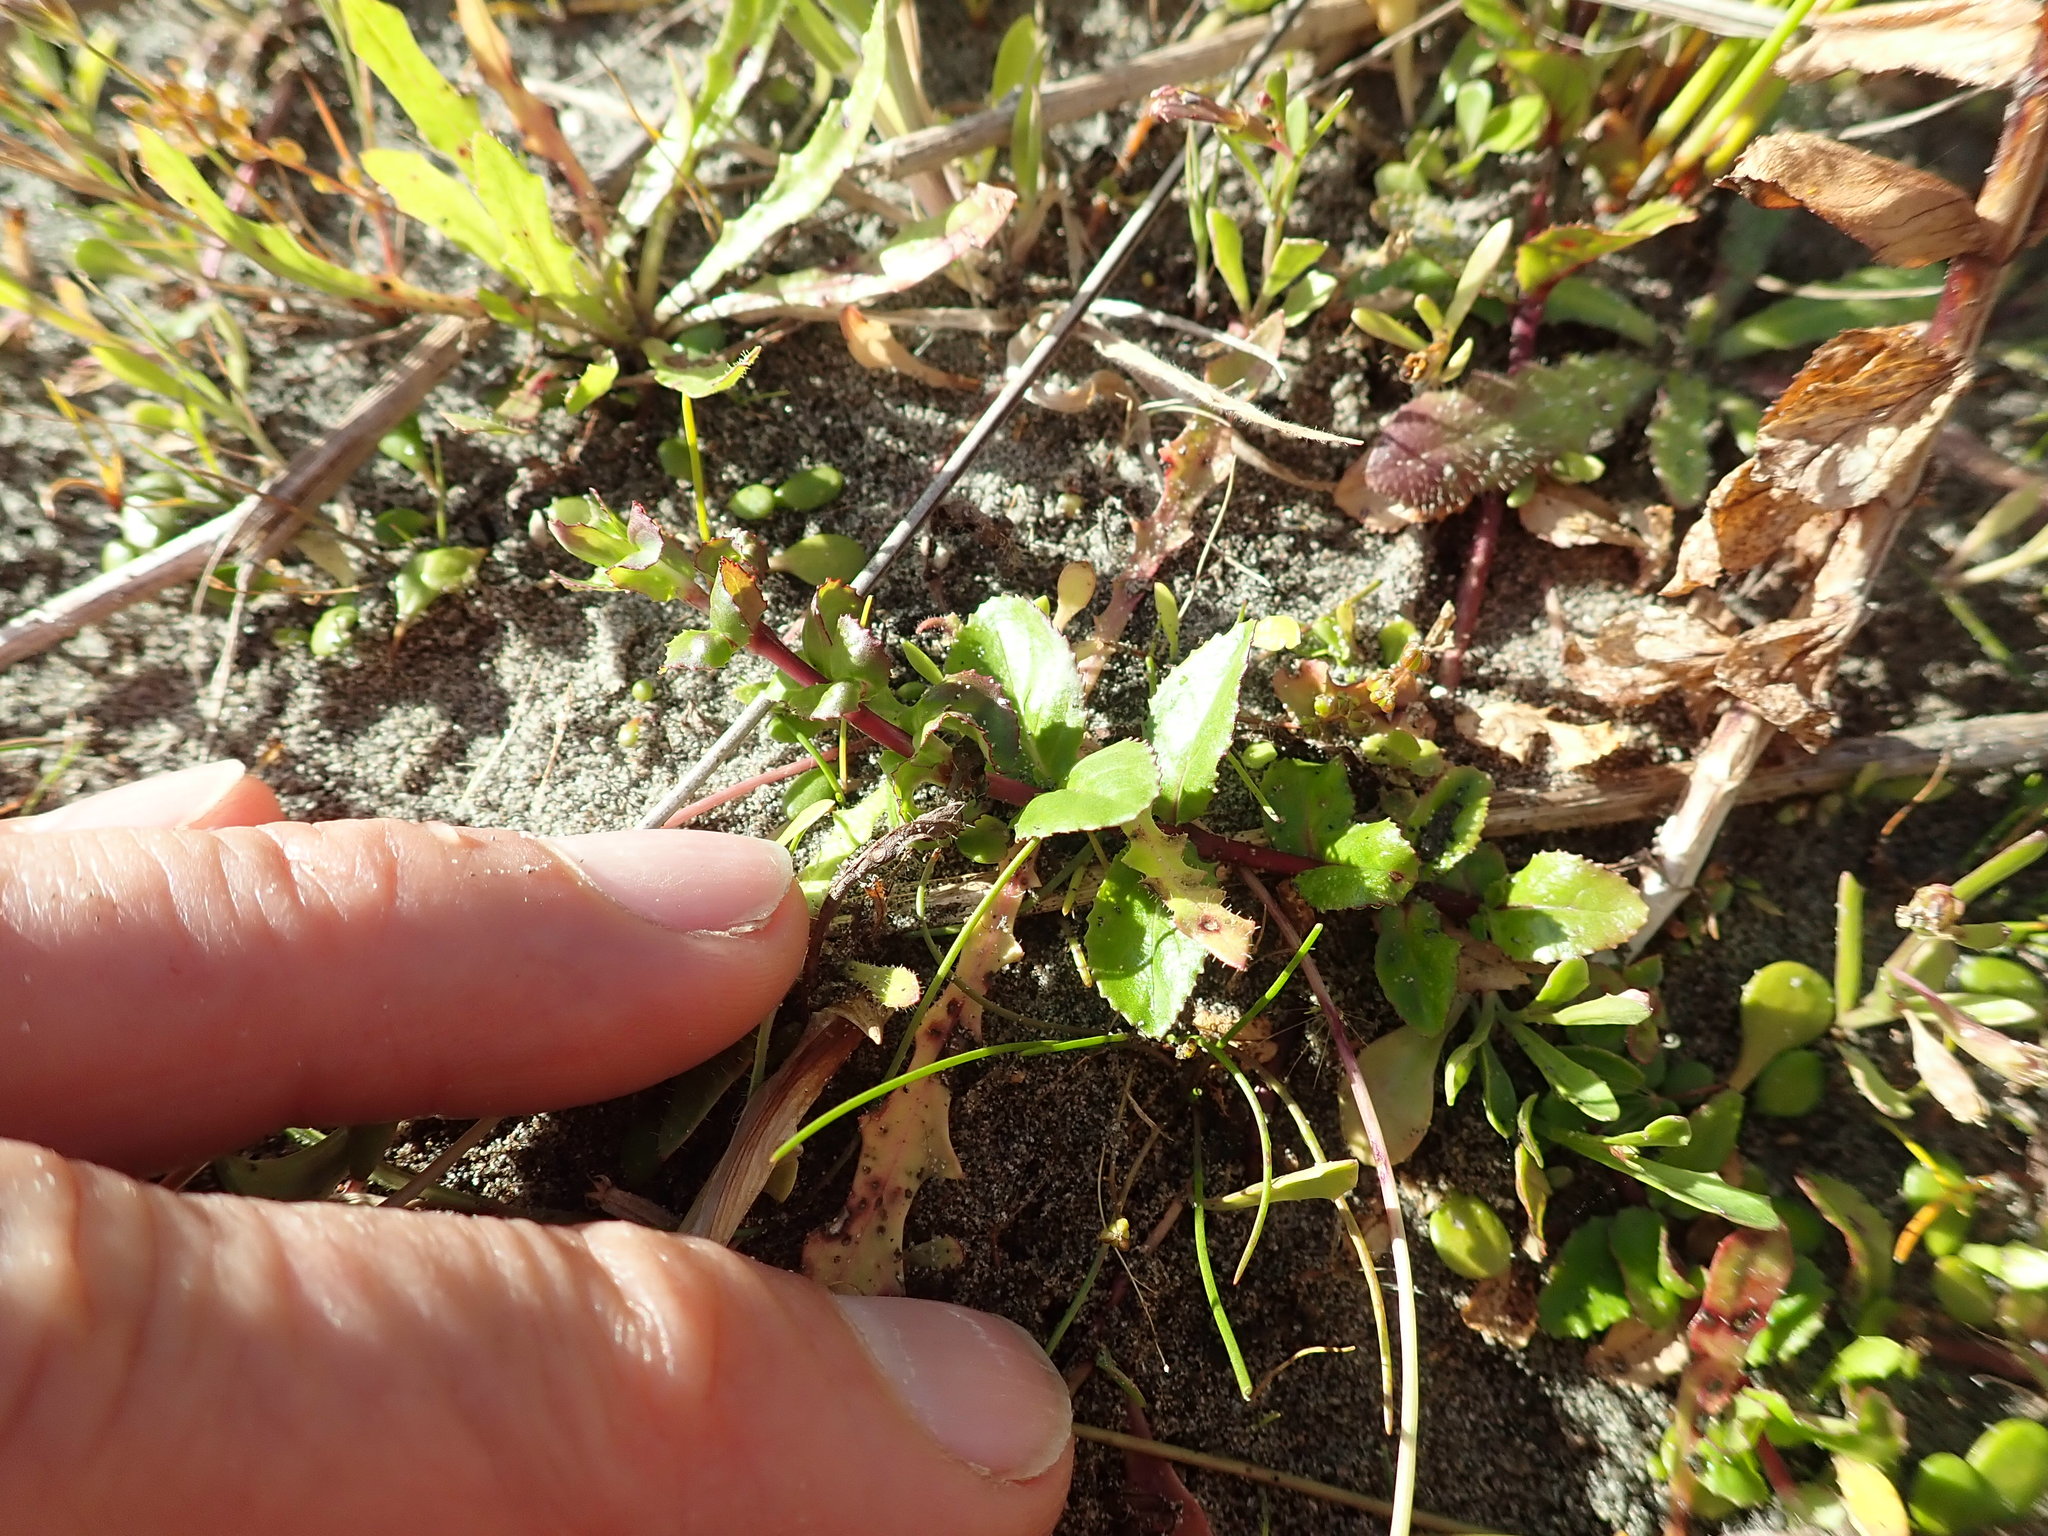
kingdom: Plantae
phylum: Tracheophyta
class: Magnoliopsida
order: Myrtales
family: Onagraceae
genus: Epilobium
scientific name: Epilobium billardiereanum
